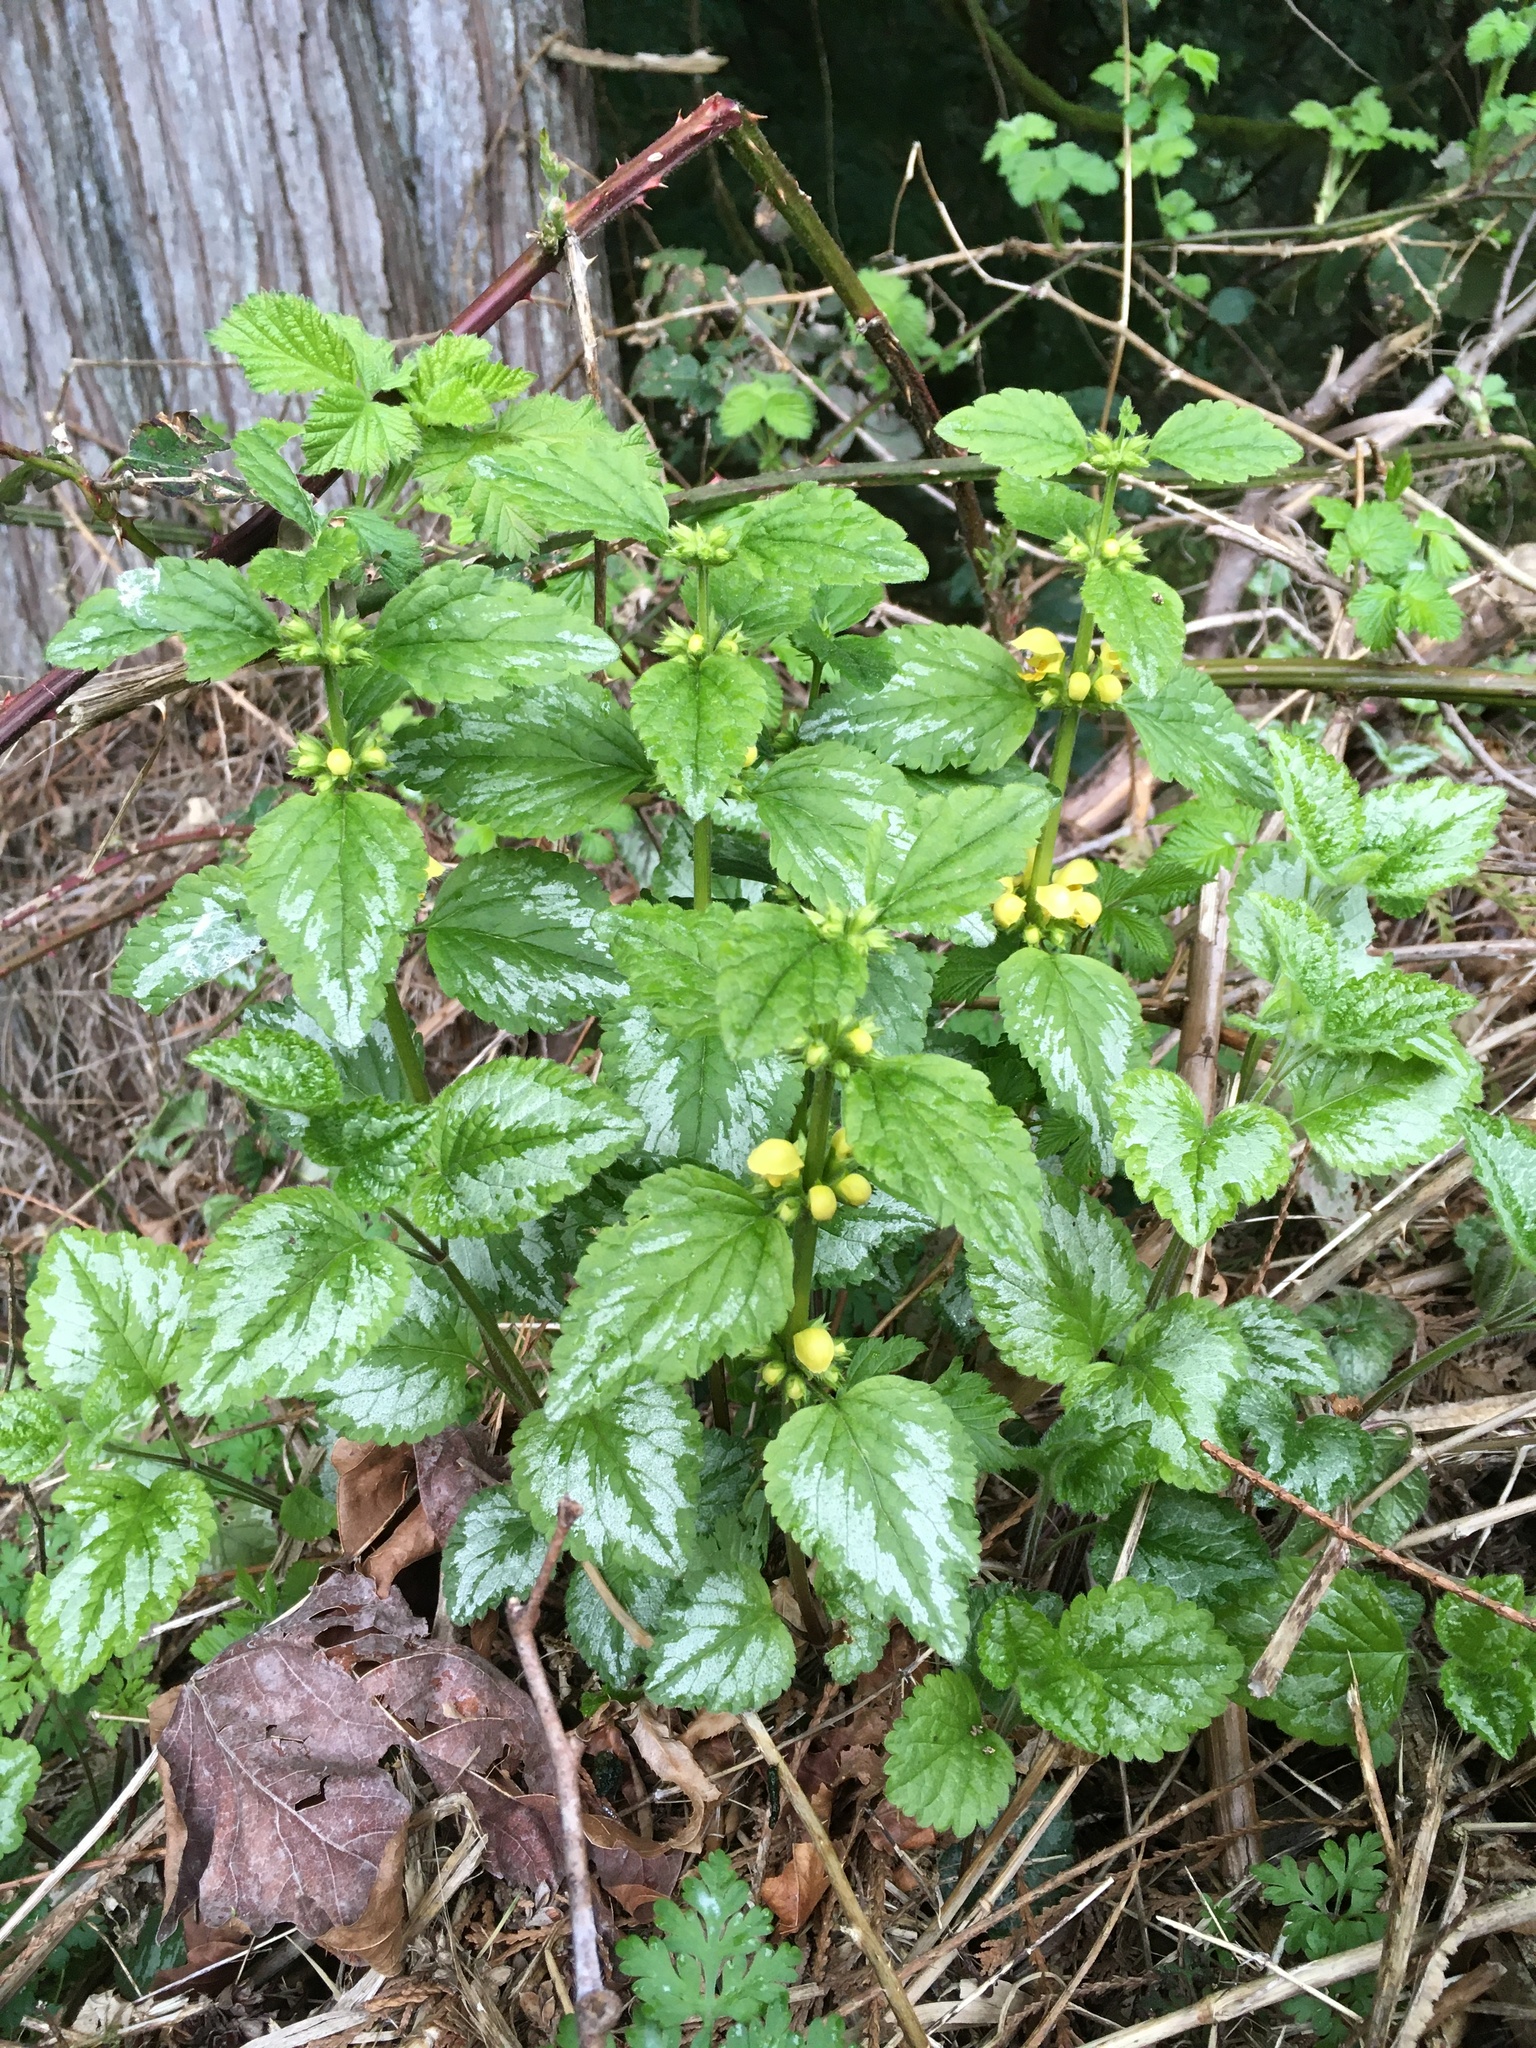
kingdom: Plantae
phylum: Tracheophyta
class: Magnoliopsida
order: Lamiales
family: Lamiaceae
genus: Lamium
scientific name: Lamium galeobdolon
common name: Yellow archangel
